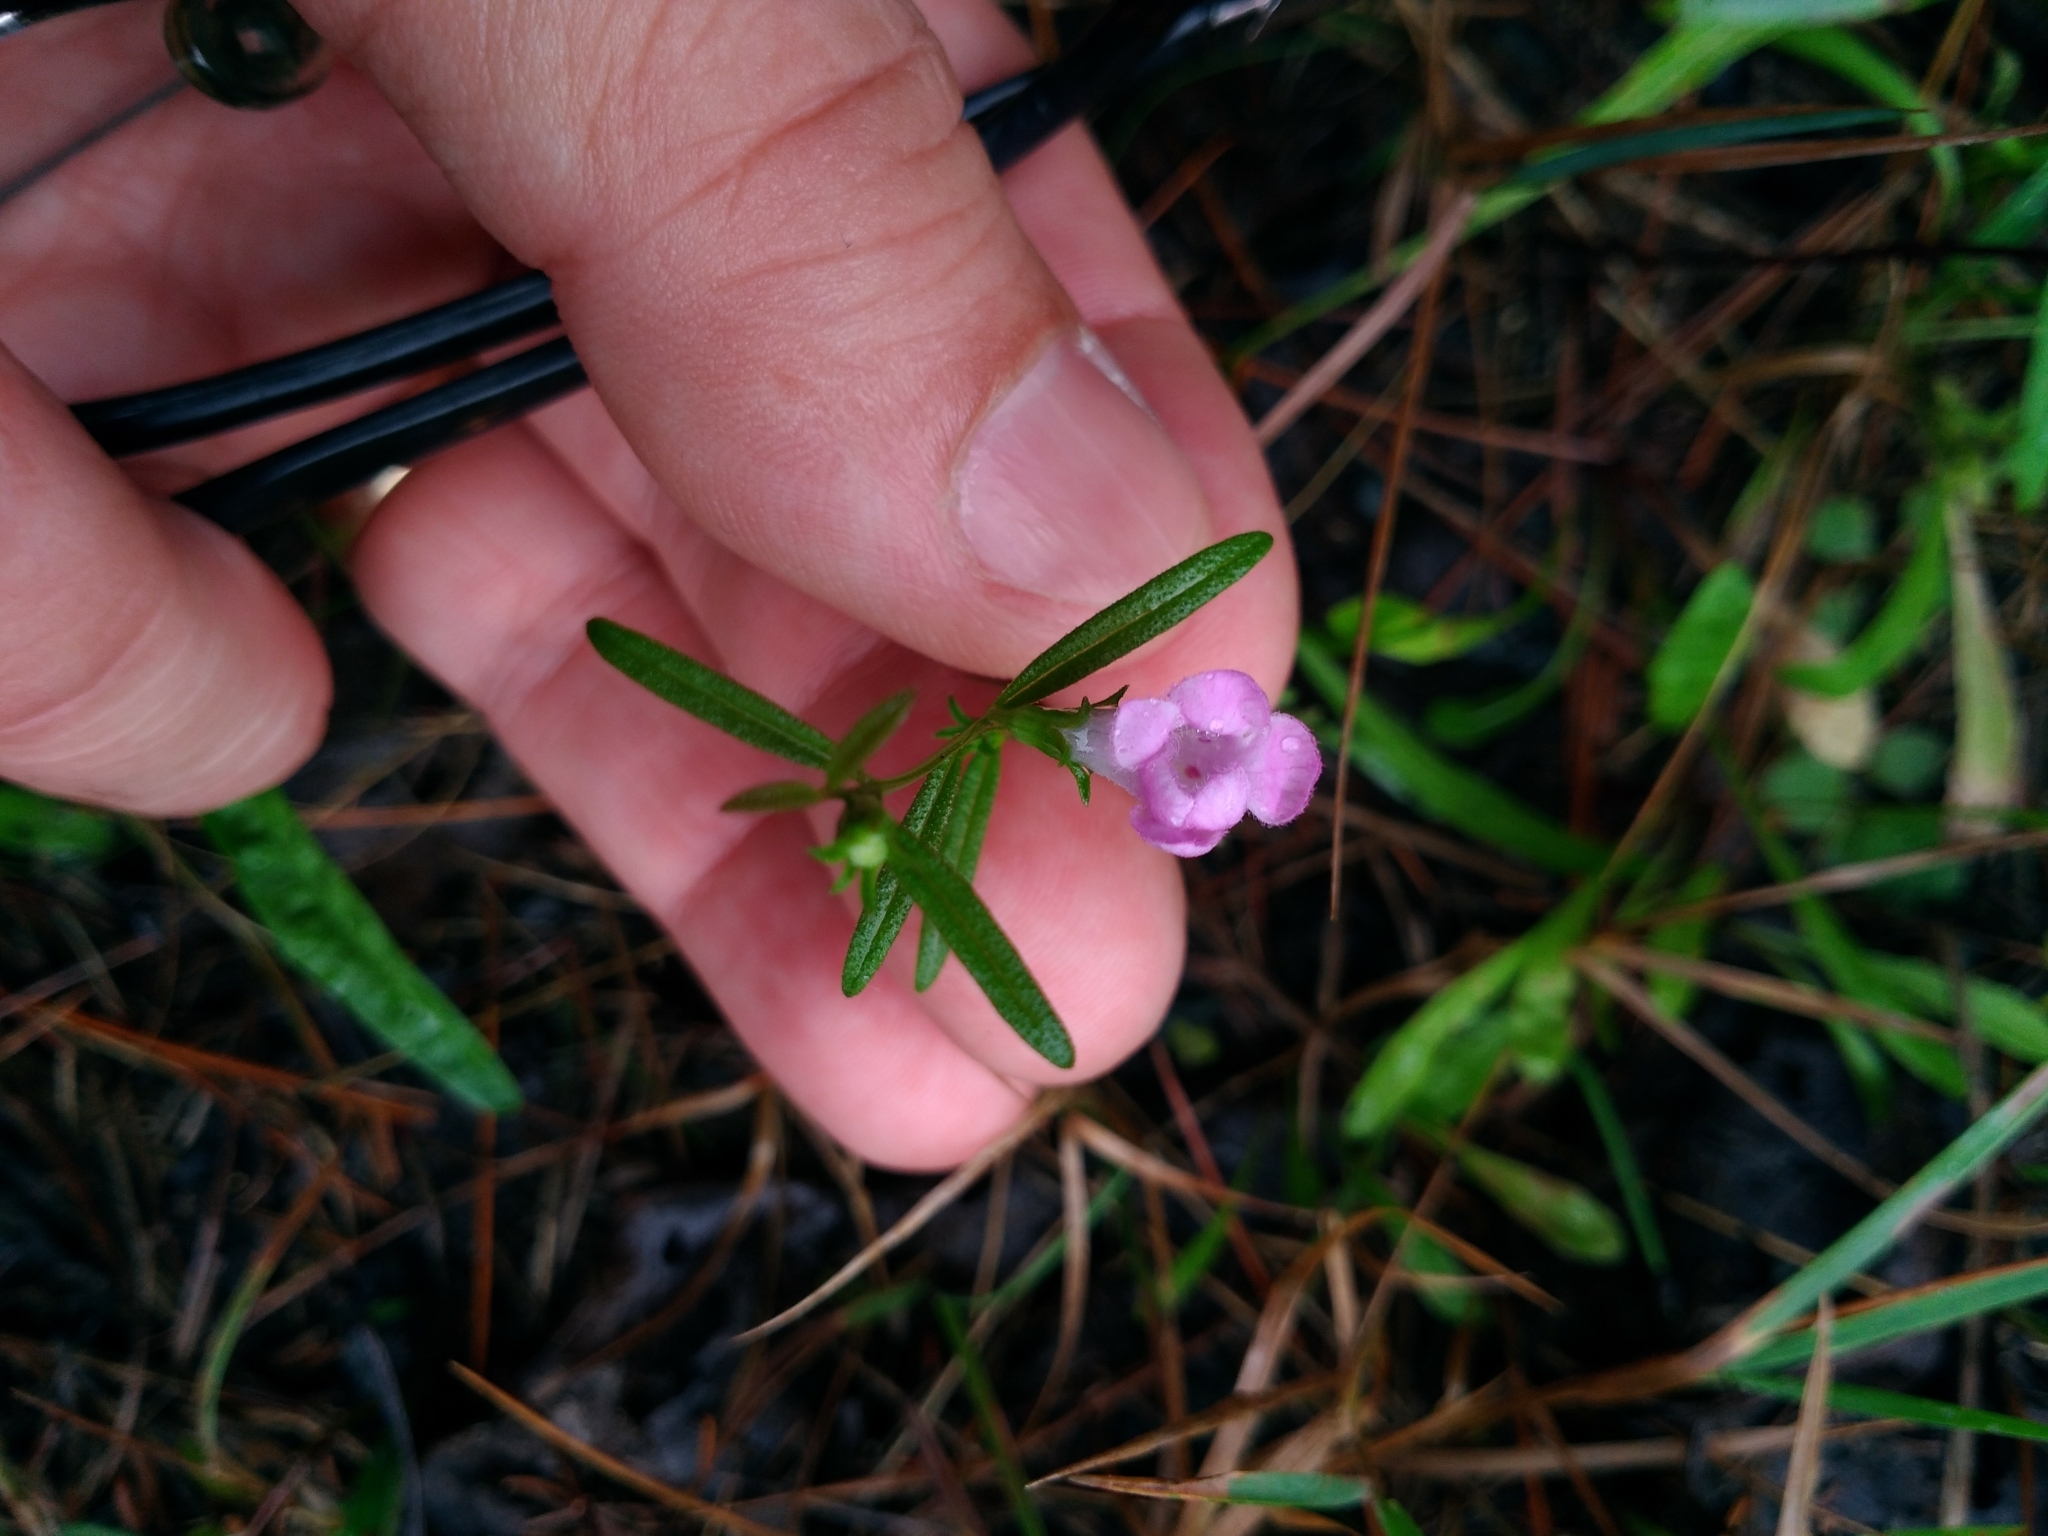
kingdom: Plantae
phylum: Tracheophyta
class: Magnoliopsida
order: Lamiales
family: Orobanchaceae
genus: Agalinis
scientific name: Agalinis neoscotica
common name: Middleton false foxglove
